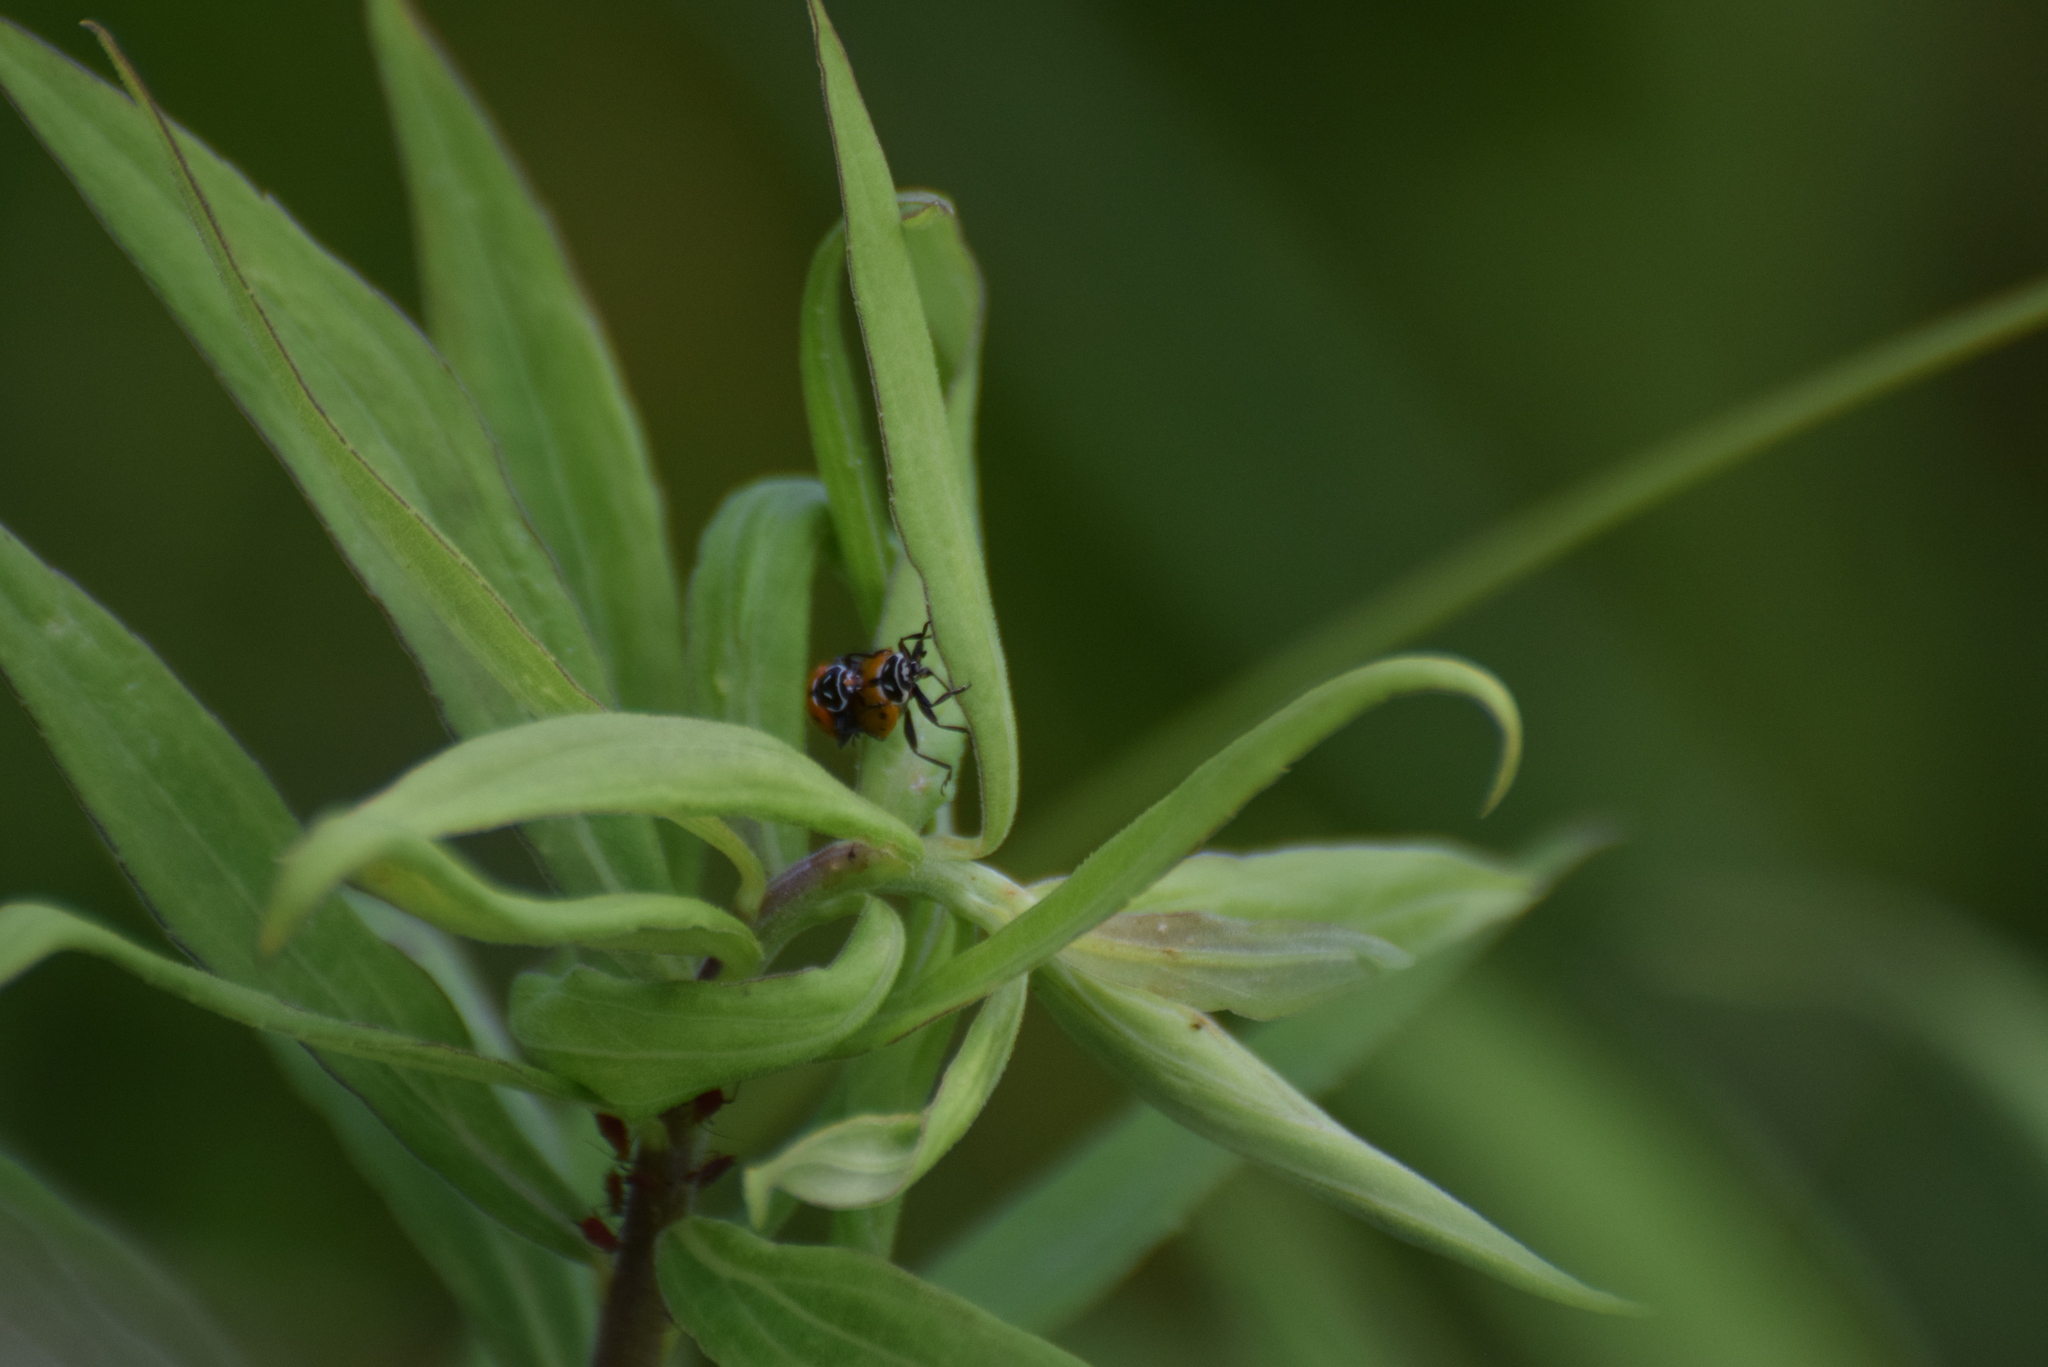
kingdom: Animalia
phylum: Arthropoda
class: Insecta
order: Coleoptera
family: Coccinellidae
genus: Hippodamia
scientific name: Hippodamia convergens
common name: Convergent lady beetle
